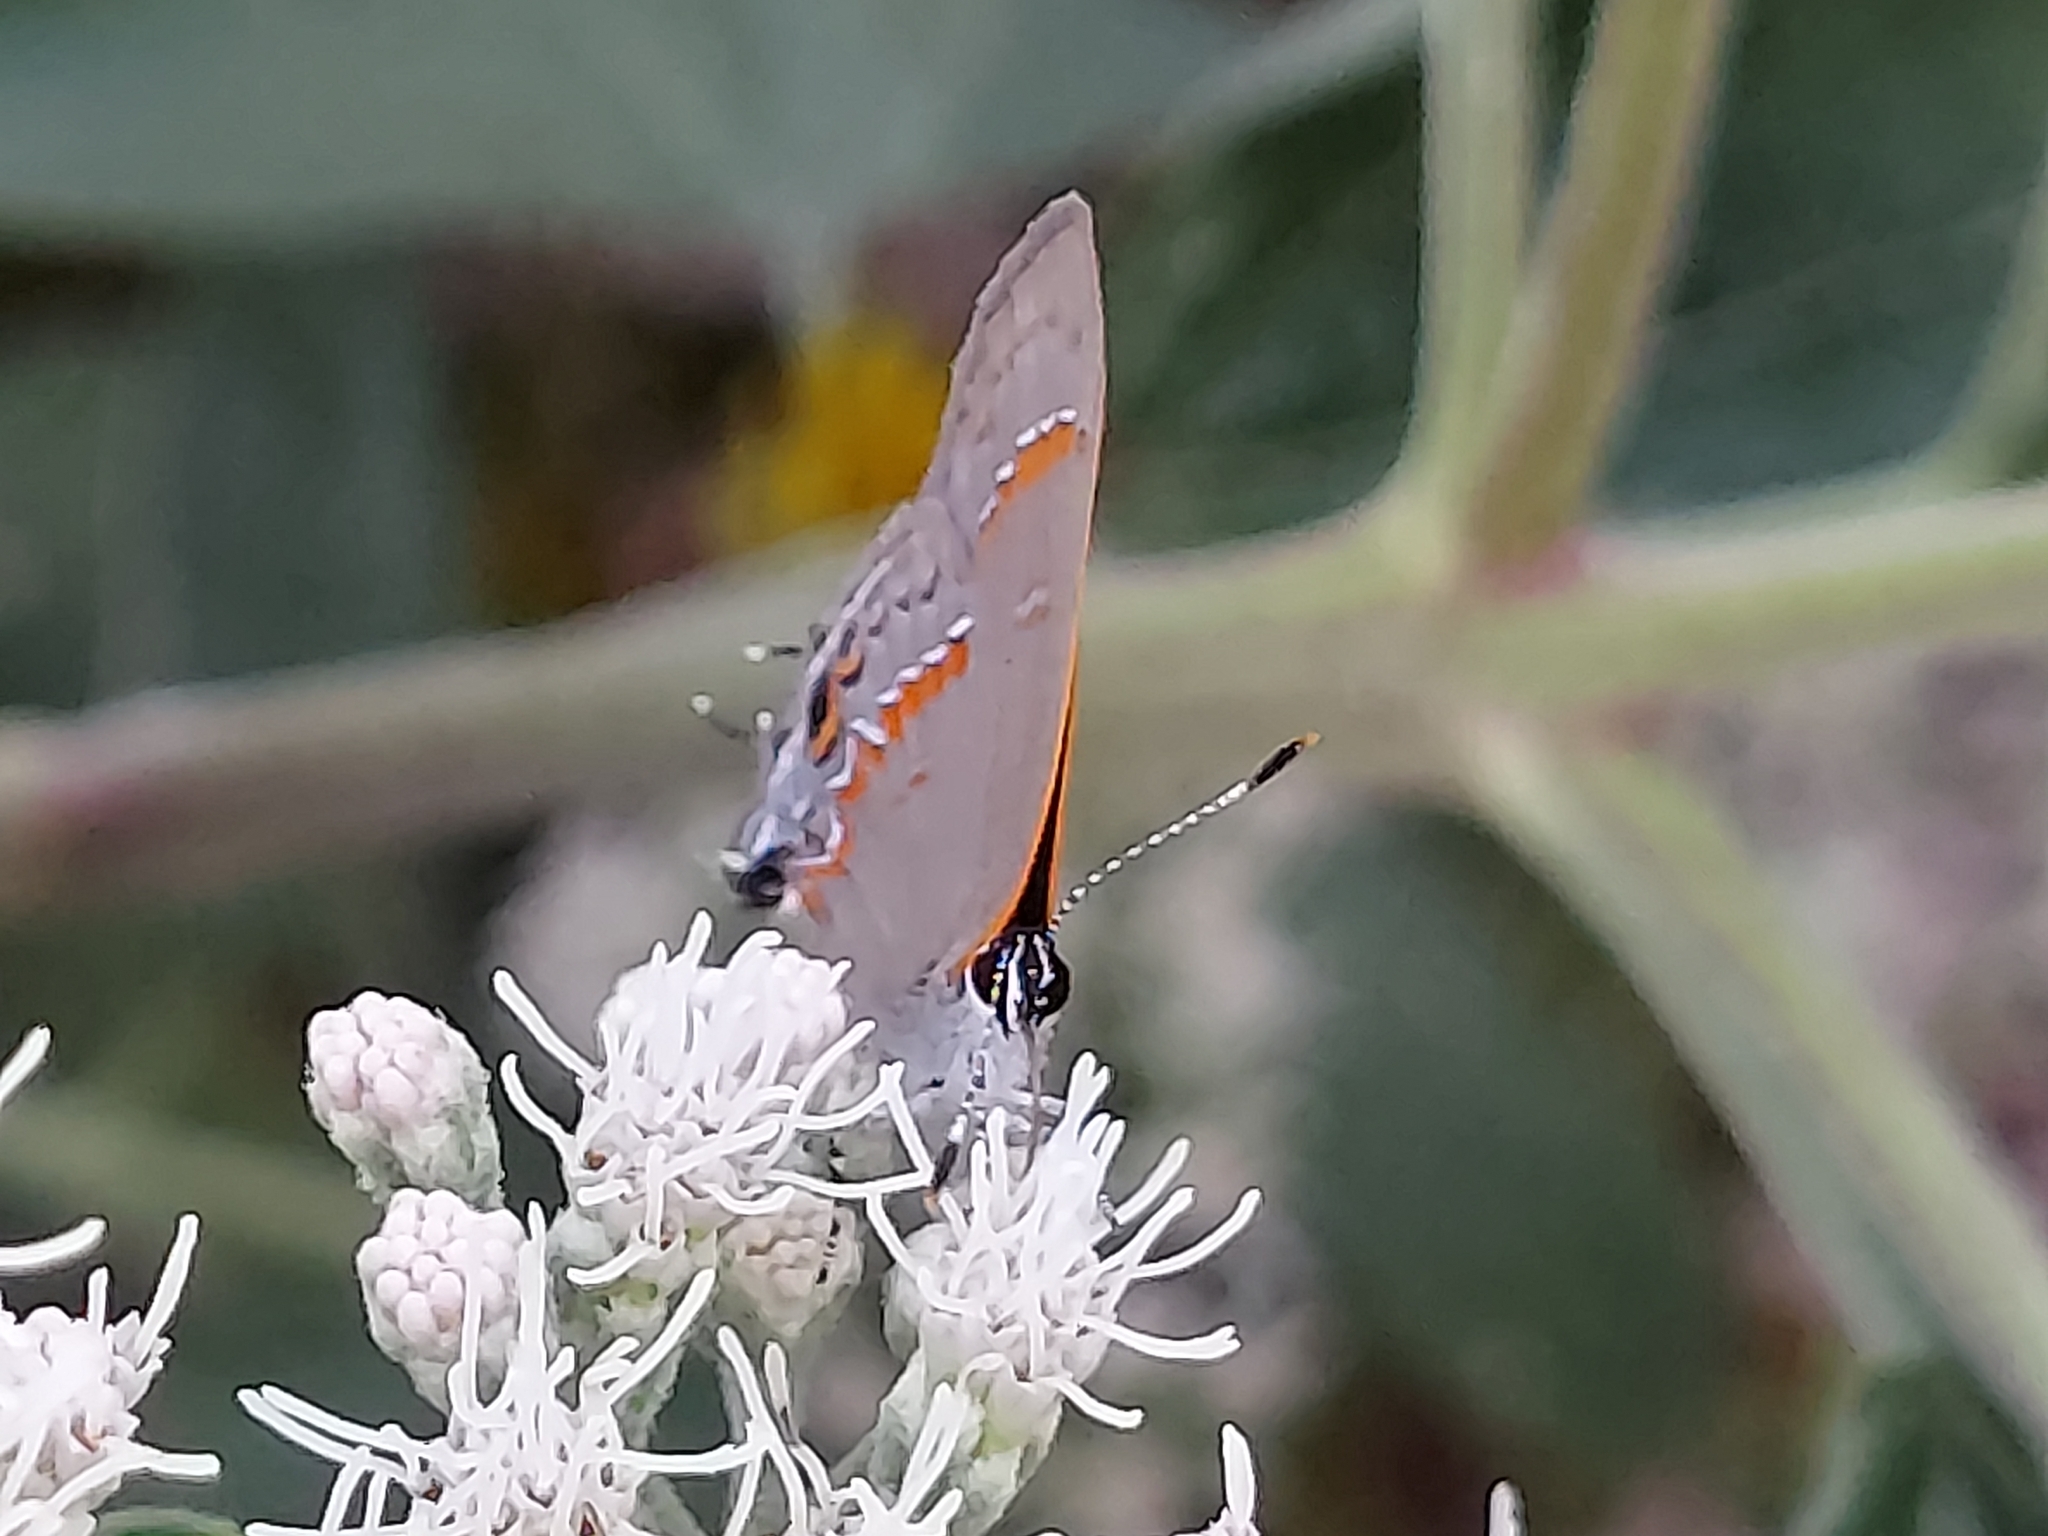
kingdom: Animalia
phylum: Arthropoda
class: Insecta
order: Lepidoptera
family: Lycaenidae
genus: Calycopis
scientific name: Calycopis cecrops
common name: Red-banded hairstreak
